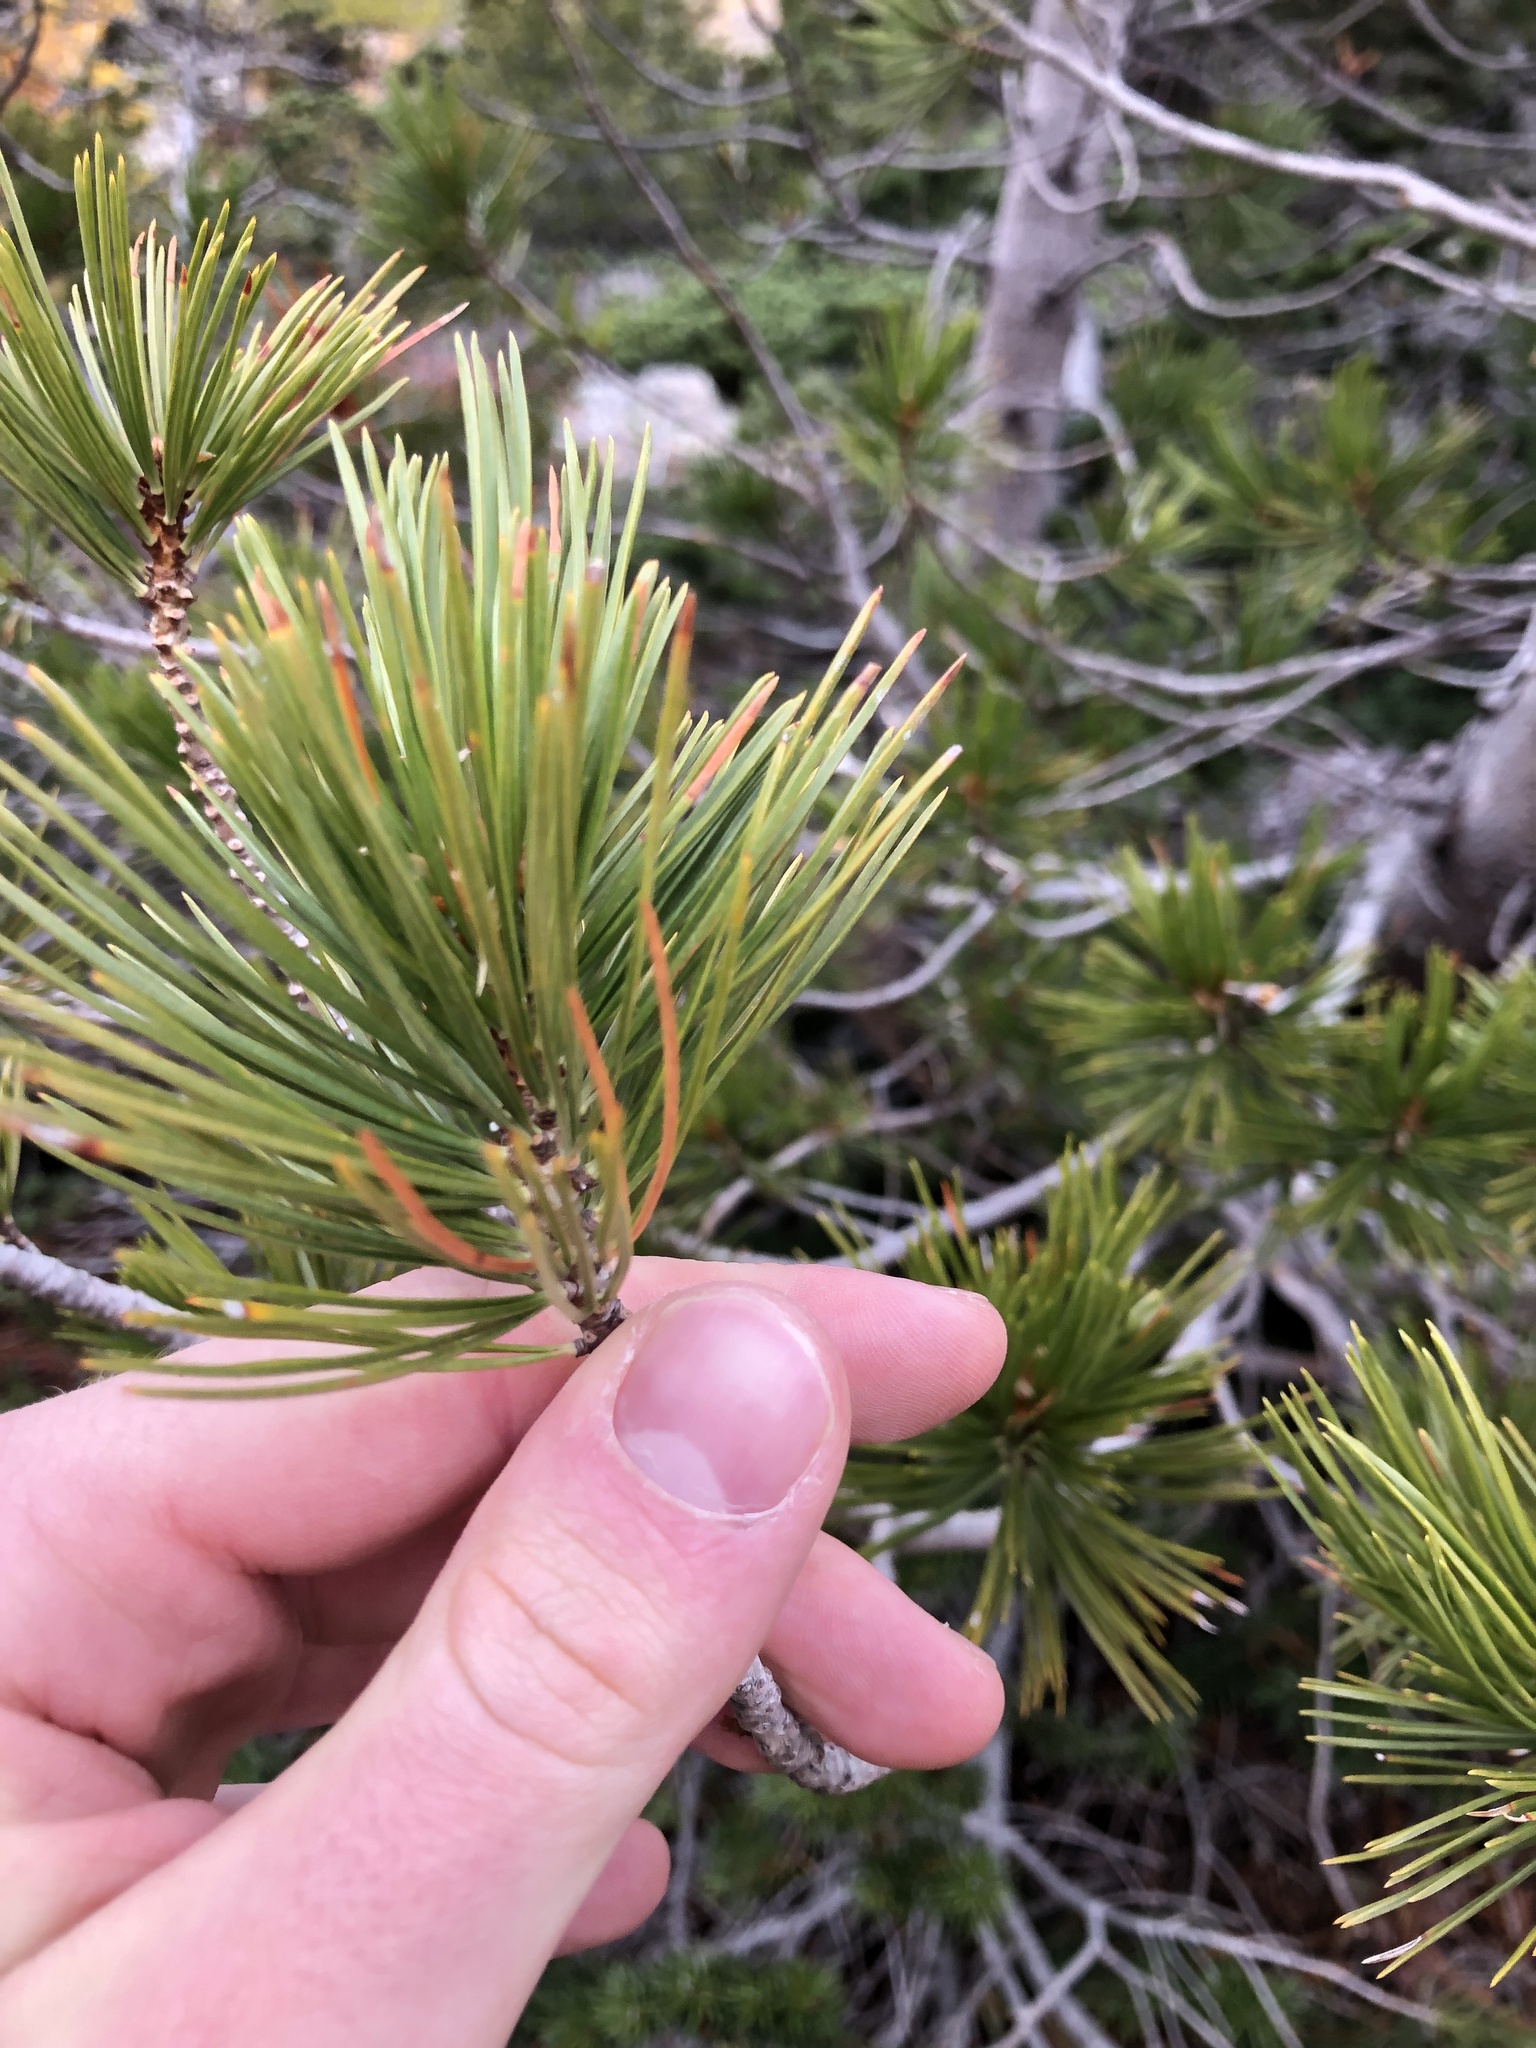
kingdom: Plantae
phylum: Tracheophyta
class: Pinopsida
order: Pinales
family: Pinaceae
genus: Pinus
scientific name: Pinus albicaulis
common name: Whitebark pine
